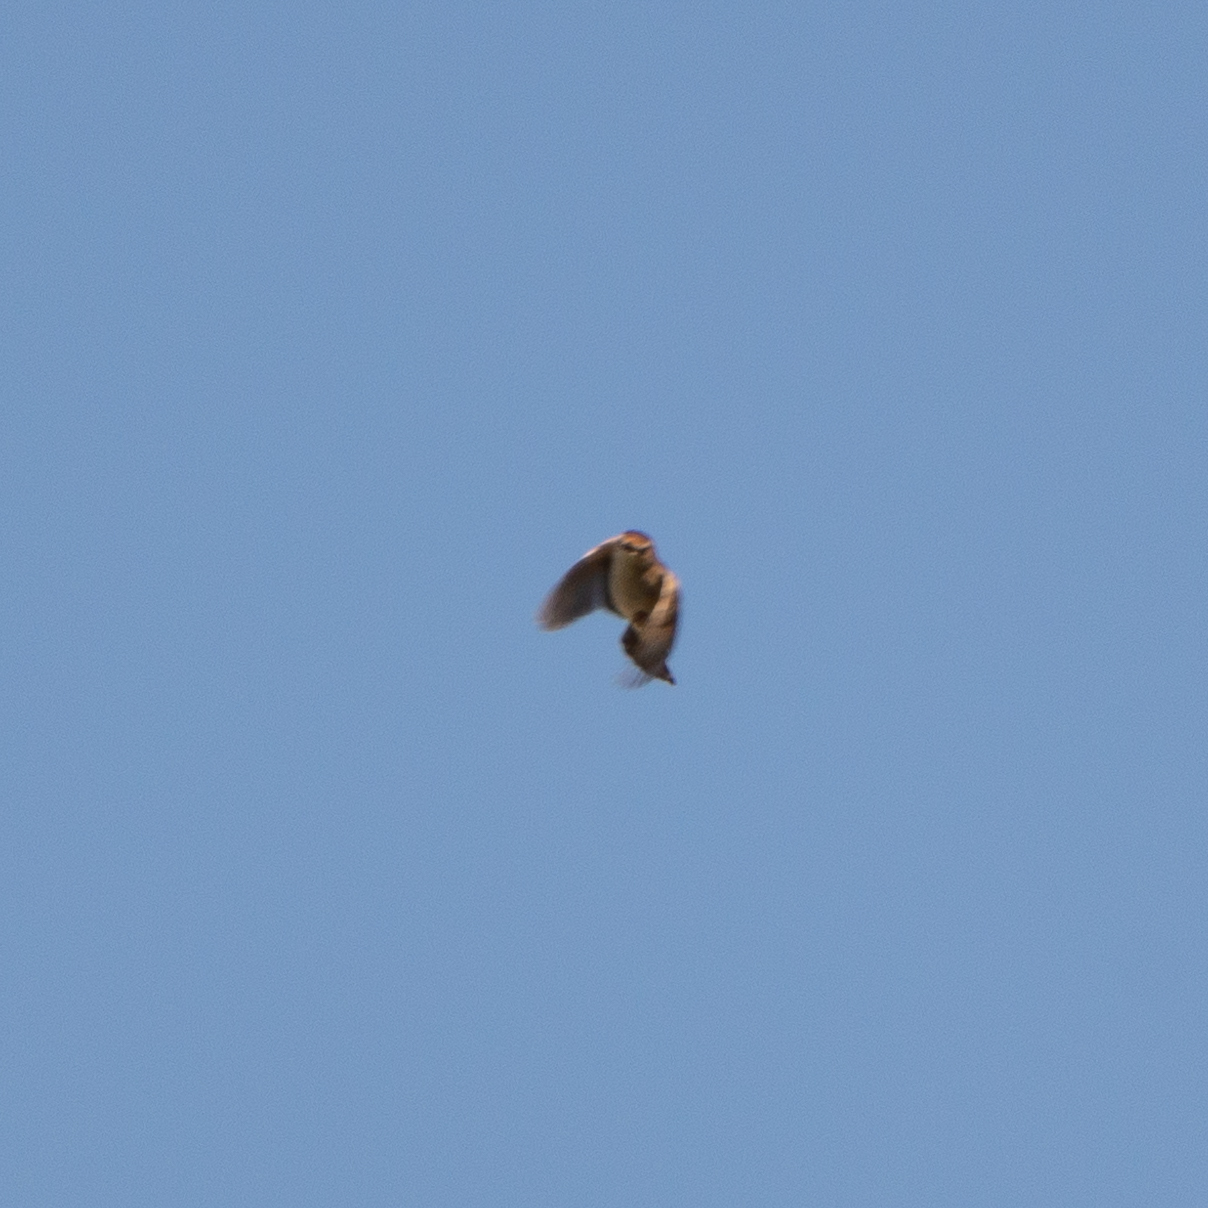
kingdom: Animalia
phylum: Chordata
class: Aves
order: Passeriformes
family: Cisticolidae
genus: Cisticola
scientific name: Cisticola juncidis
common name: Zitting cisticola
